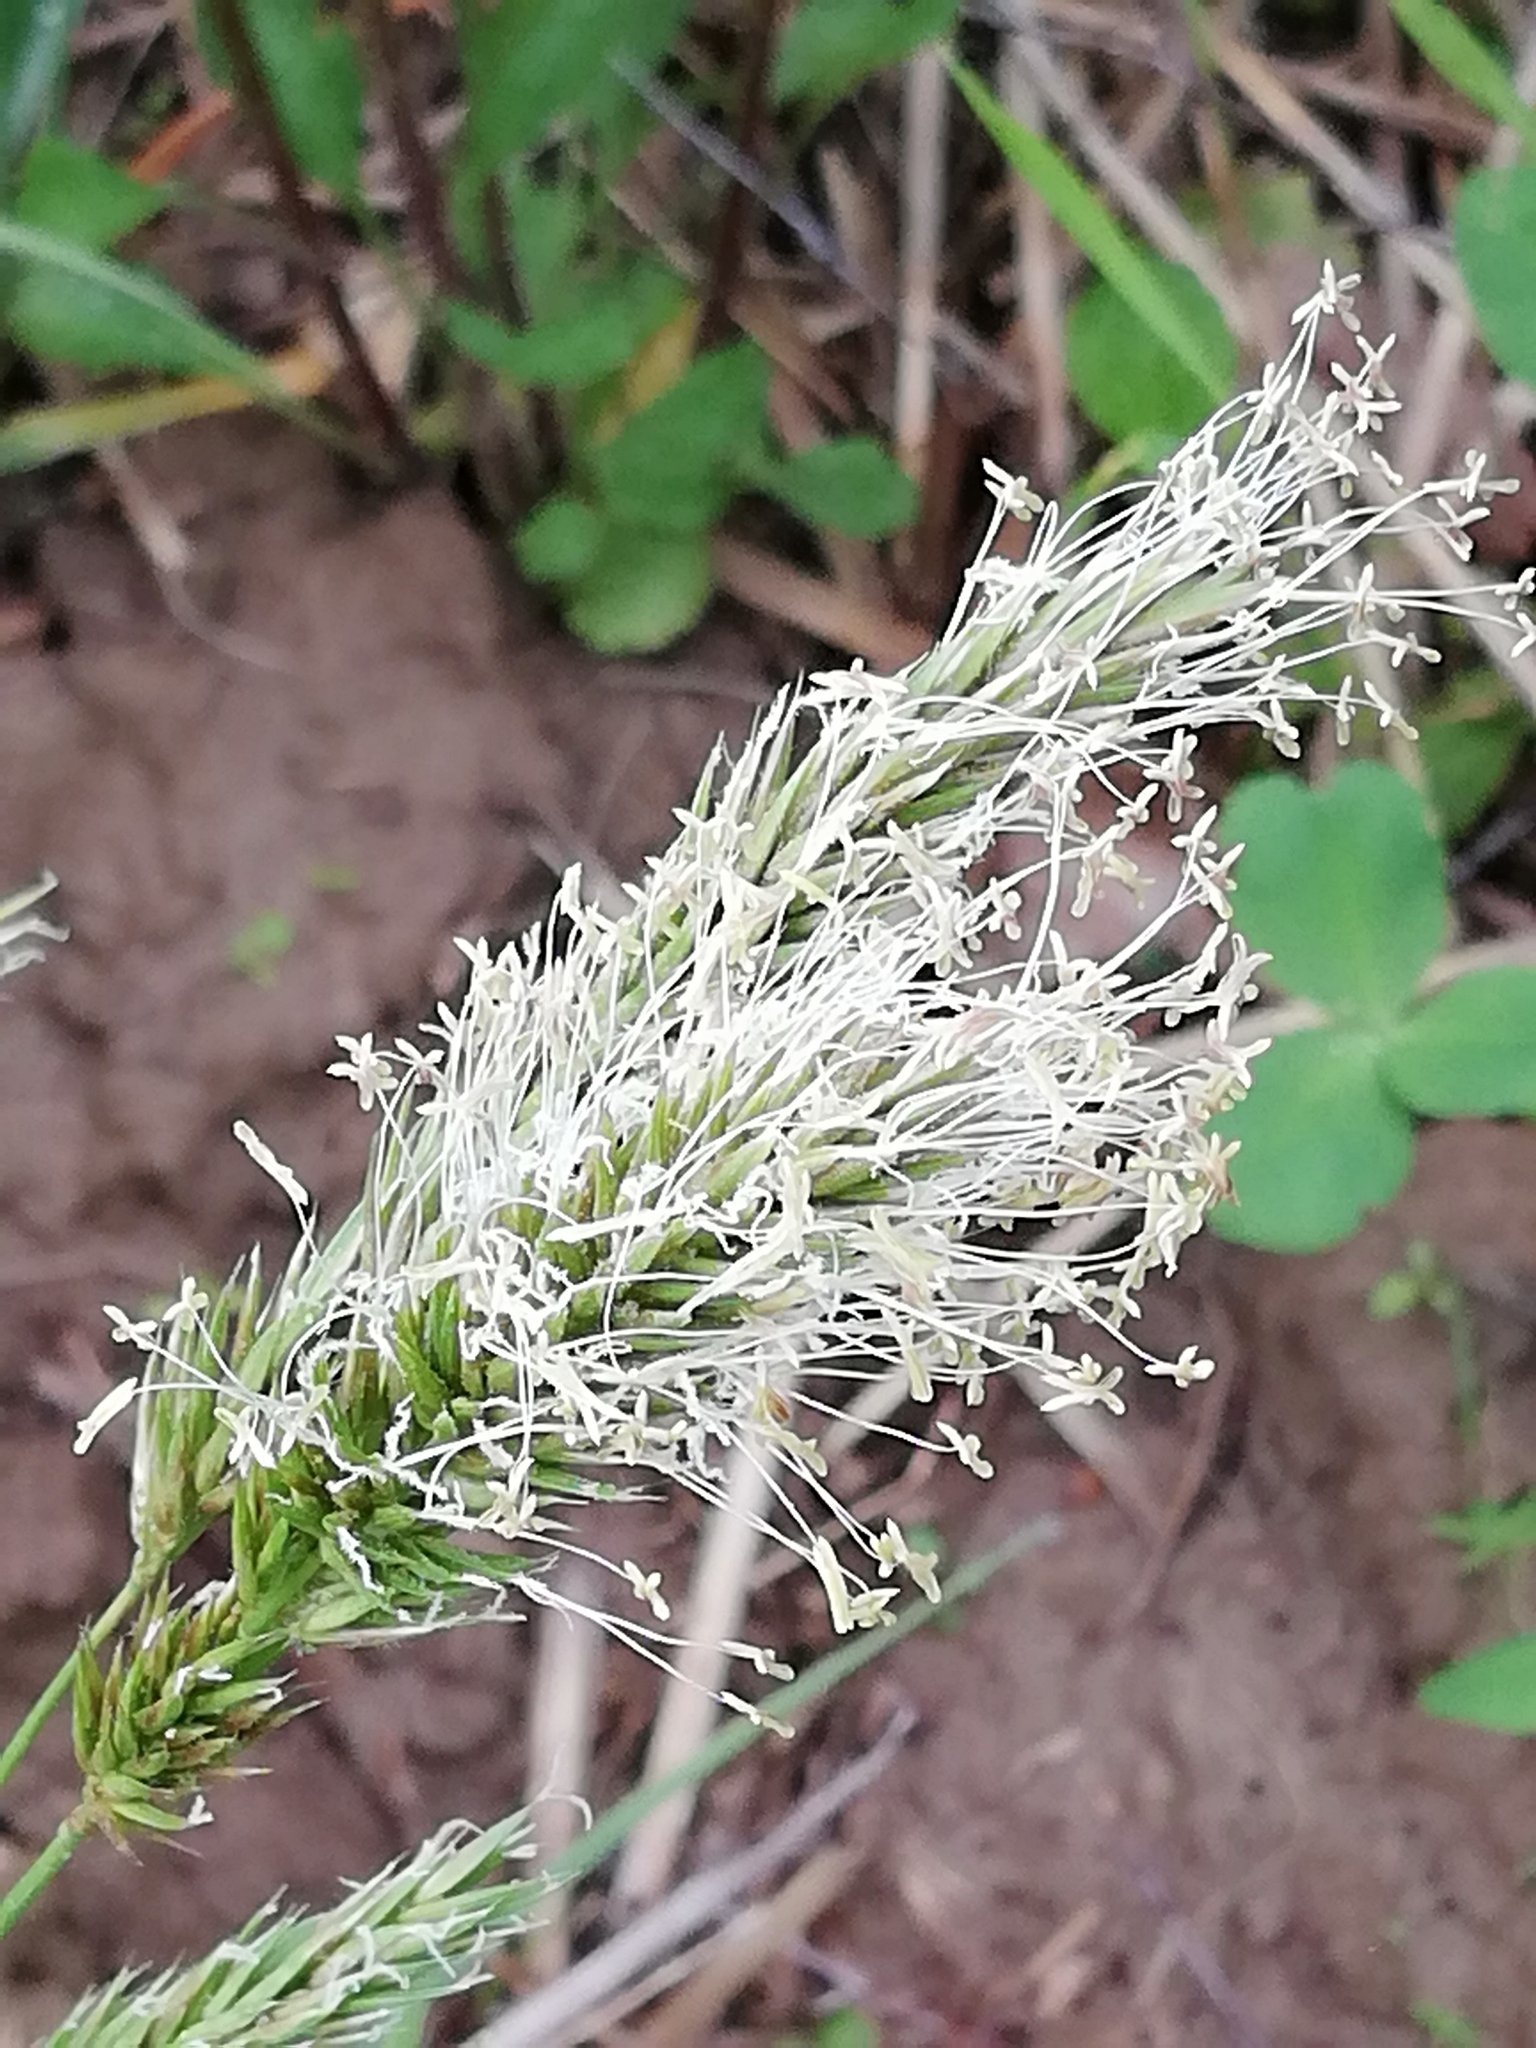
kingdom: Plantae
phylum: Tracheophyta
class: Liliopsida
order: Poales
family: Poaceae
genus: Anthoxanthum
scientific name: Anthoxanthum odoratum
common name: Sweet vernalgrass
